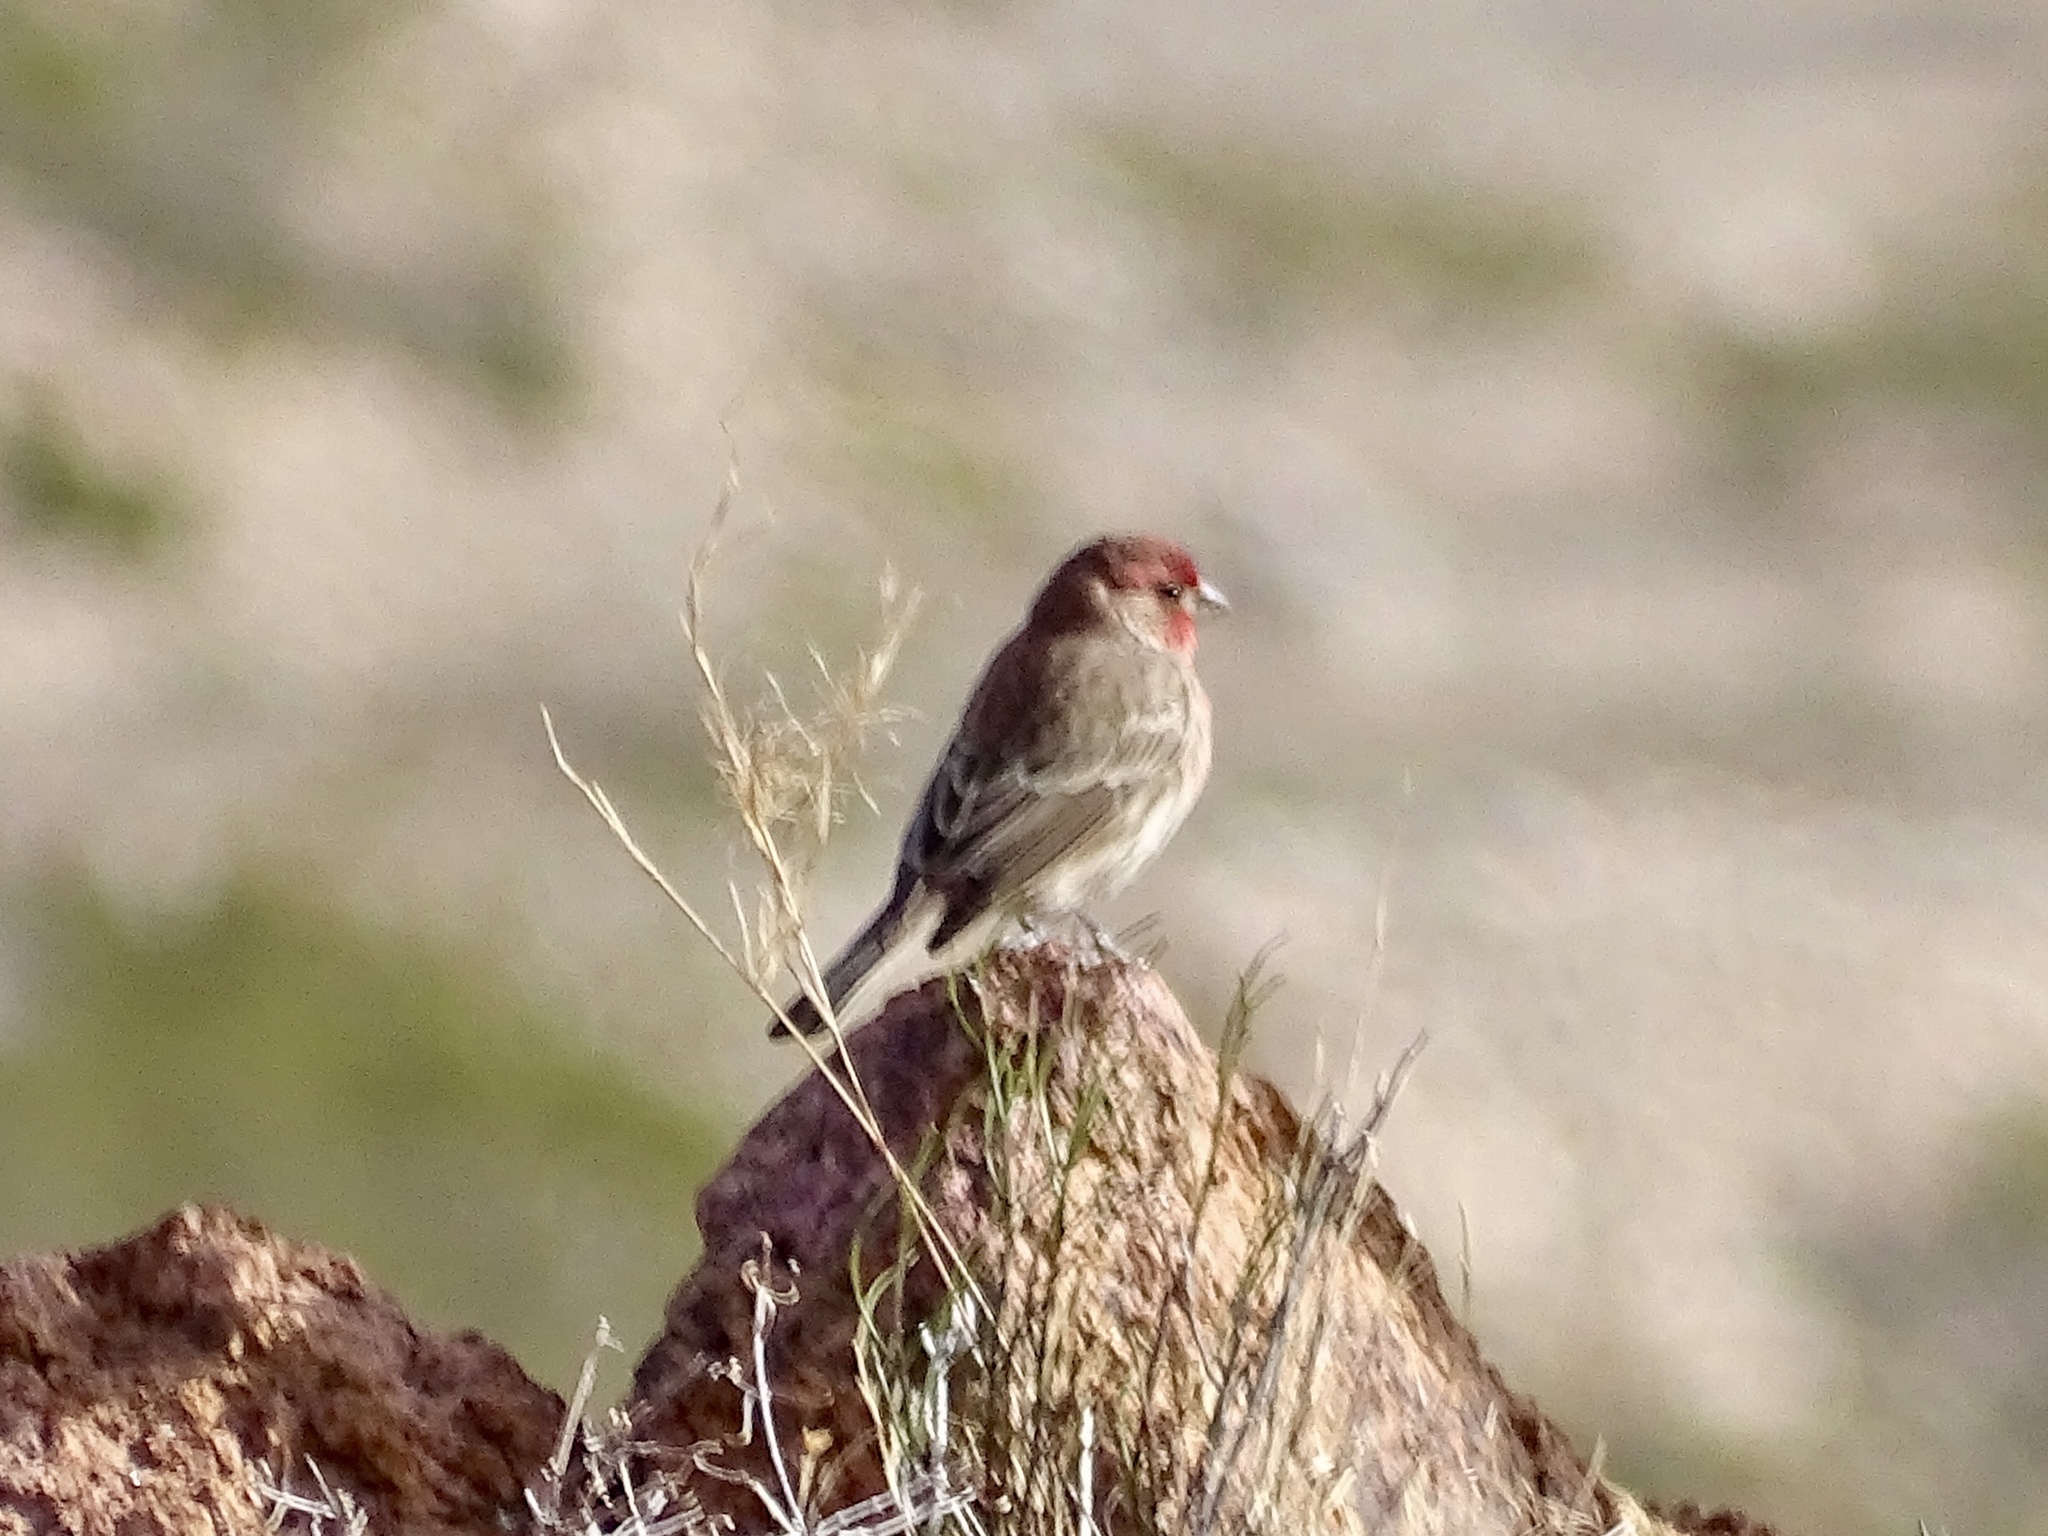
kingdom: Animalia
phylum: Chordata
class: Aves
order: Passeriformes
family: Fringillidae
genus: Haemorhous
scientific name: Haemorhous mexicanus
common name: House finch
